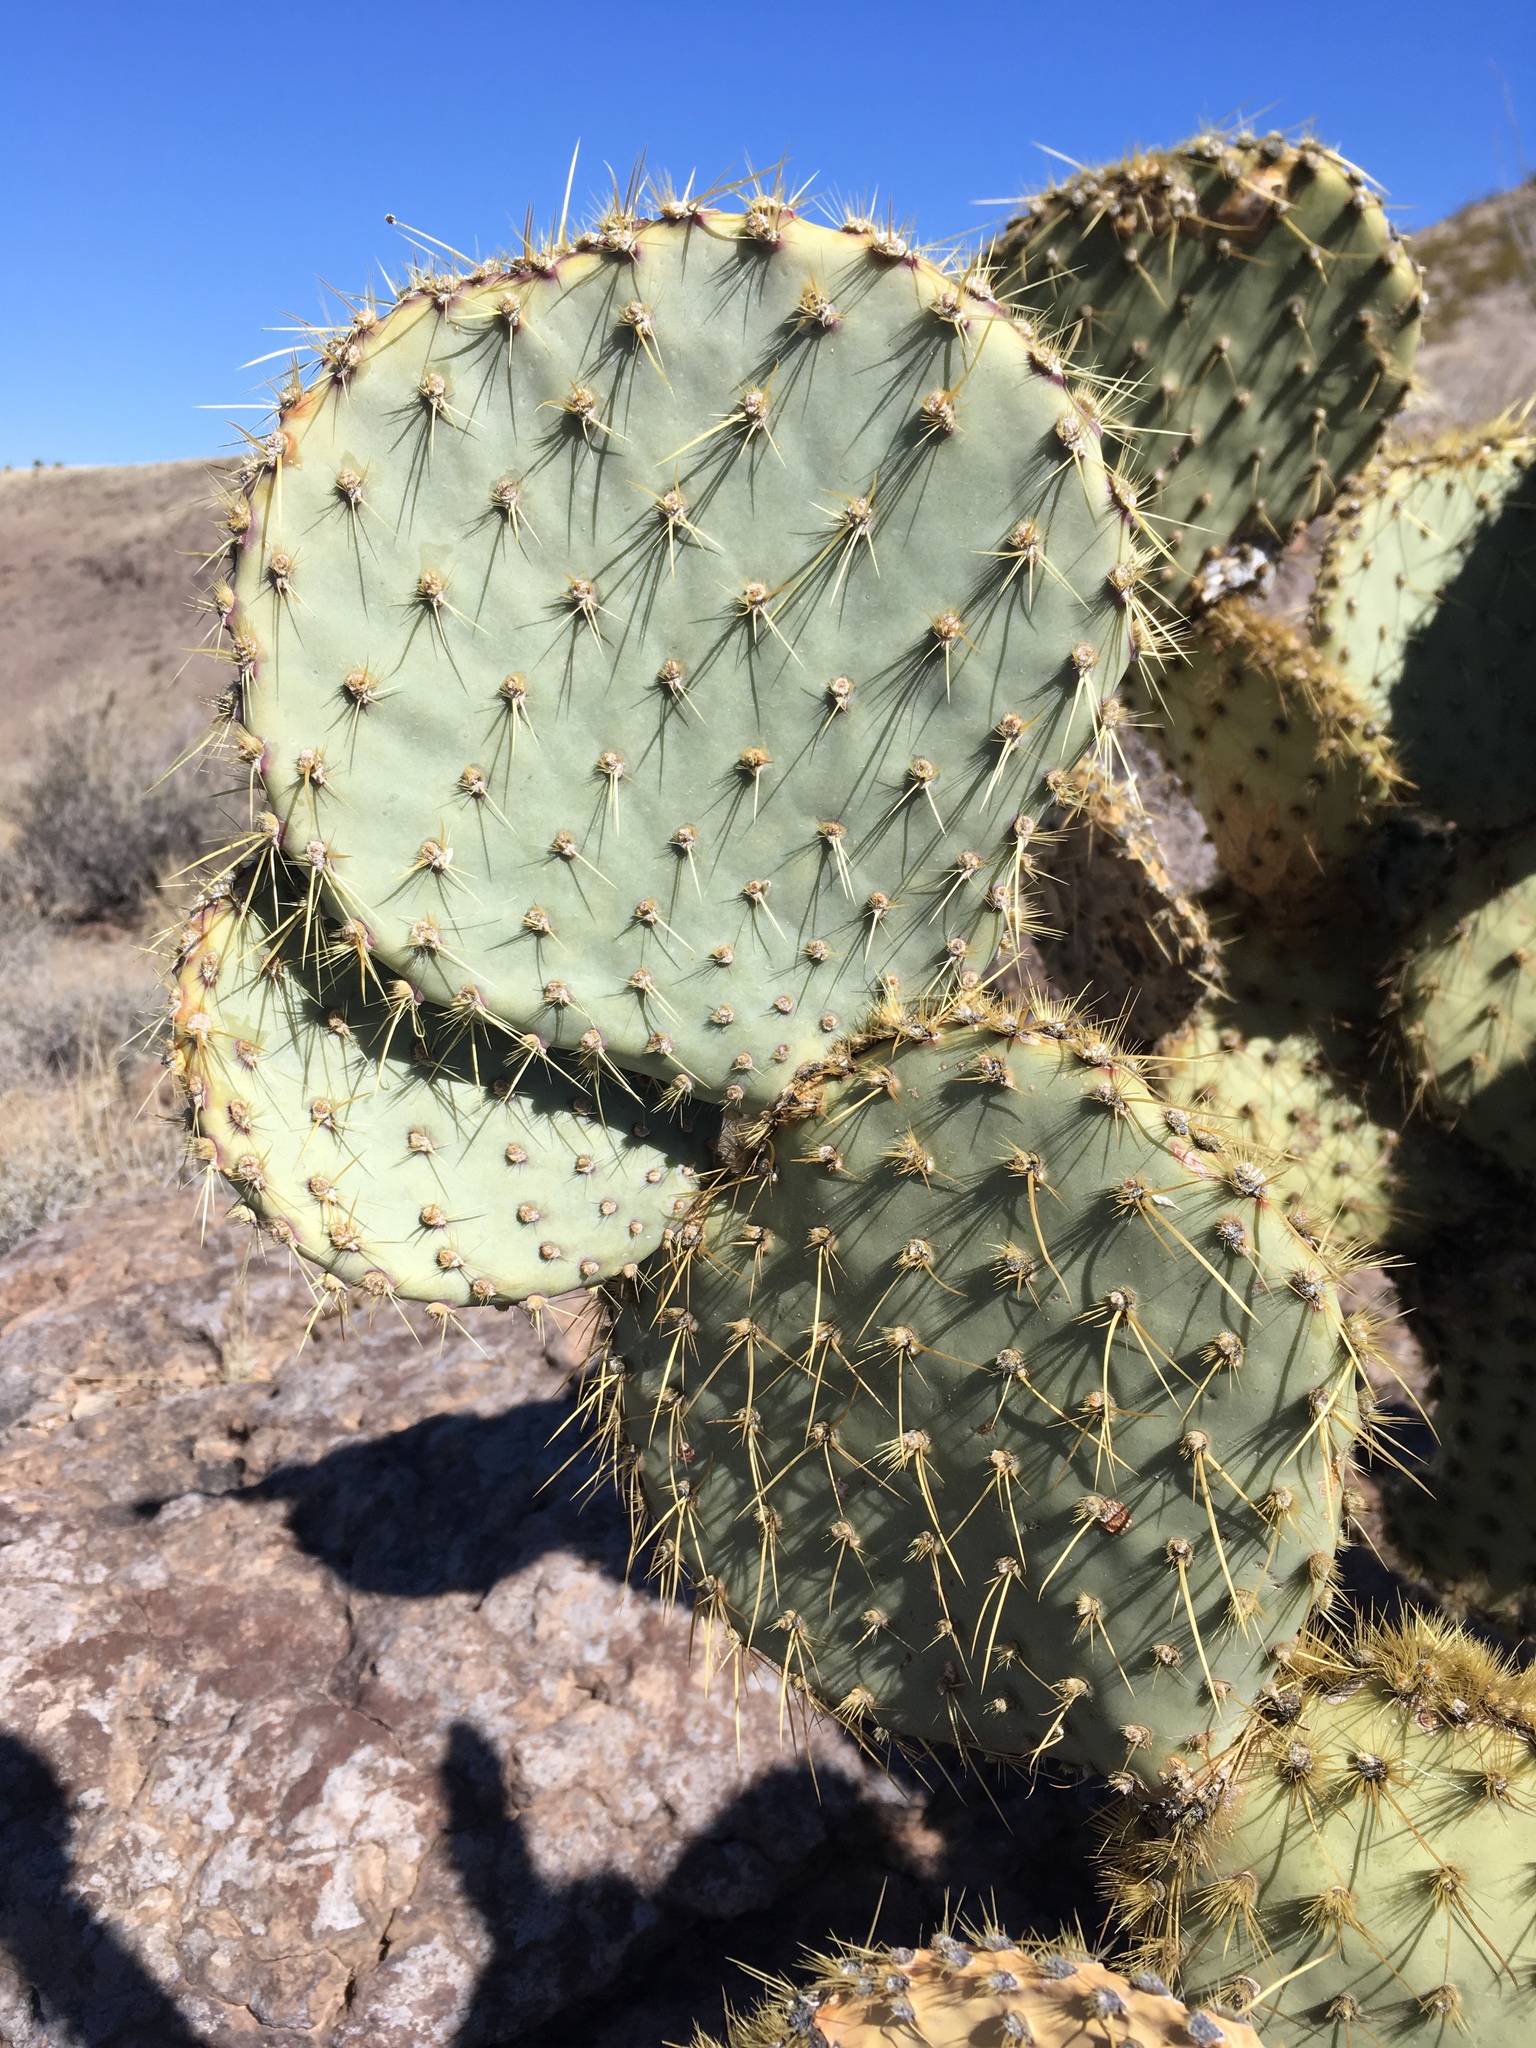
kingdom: Plantae
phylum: Tracheophyta
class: Magnoliopsida
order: Caryophyllales
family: Cactaceae
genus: Opuntia
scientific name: Opuntia chlorotica
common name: Dollar-joint prickly-pear
